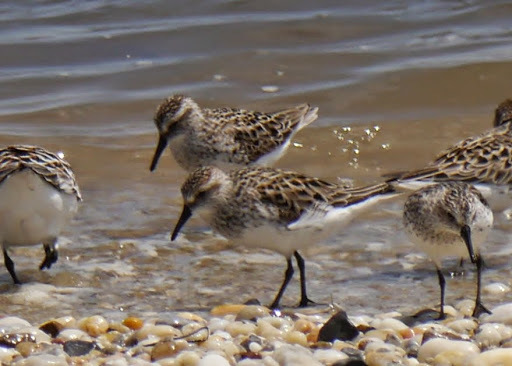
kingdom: Animalia
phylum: Chordata
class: Aves
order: Charadriiformes
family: Scolopacidae
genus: Calidris
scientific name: Calidris pusilla
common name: Semipalmated sandpiper
